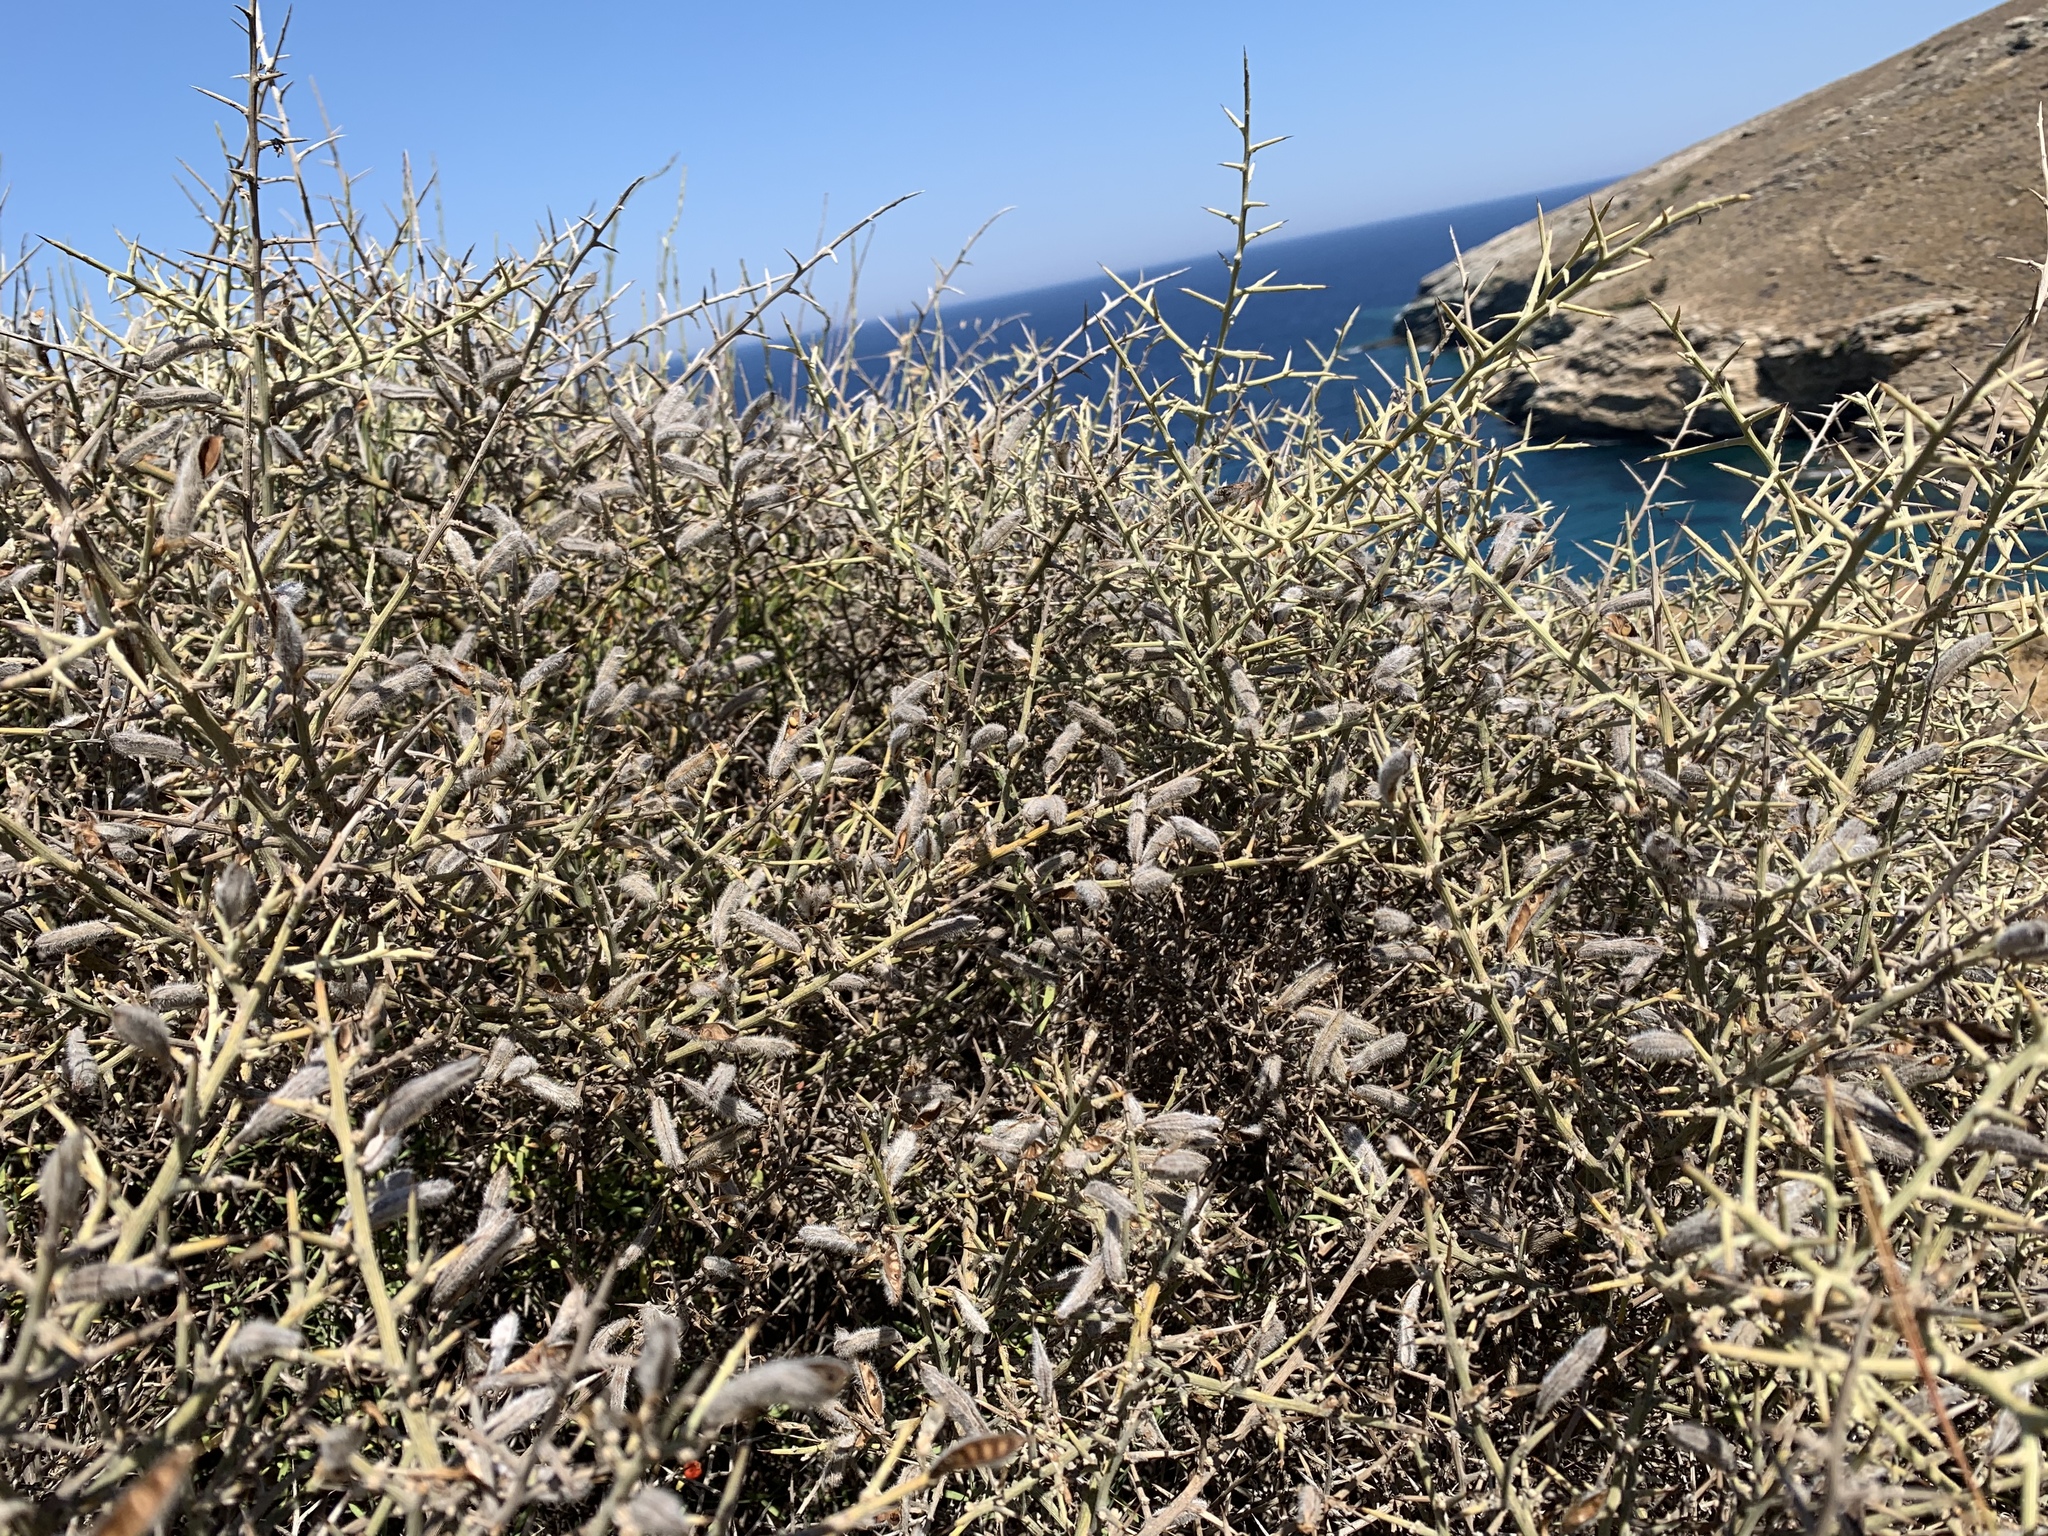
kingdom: Plantae
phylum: Tracheophyta
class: Magnoliopsida
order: Fabales
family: Fabaceae
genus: Calicotome
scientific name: Calicotome villosa
